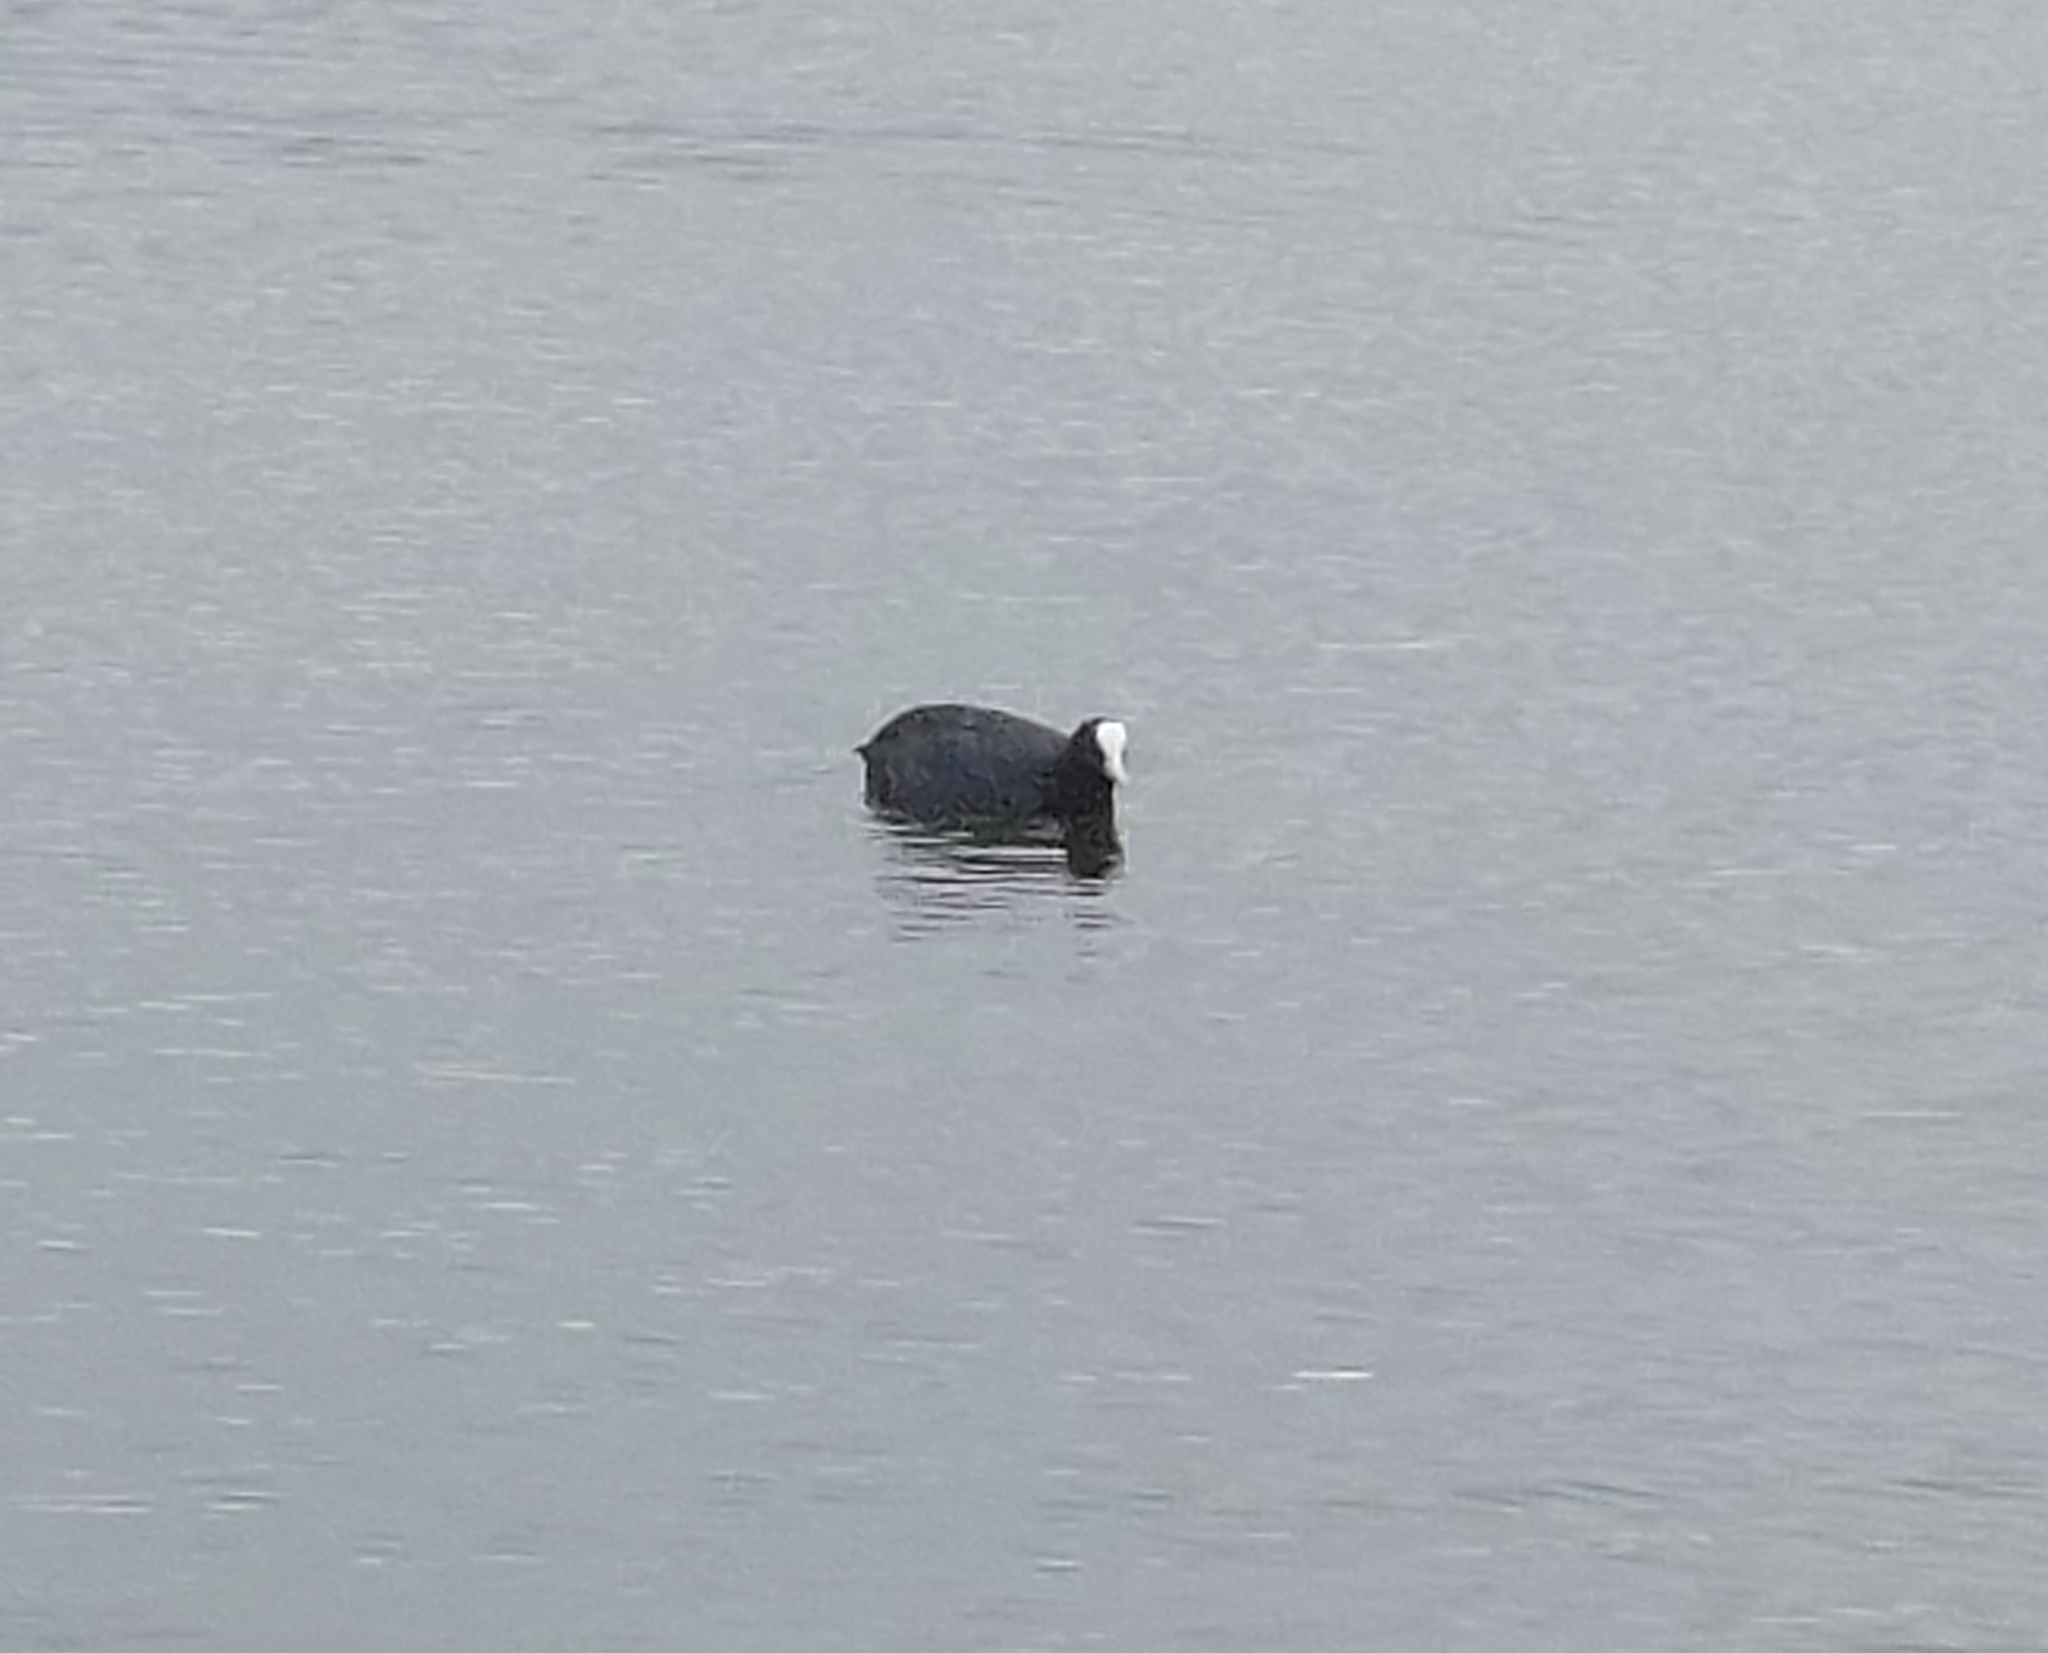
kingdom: Animalia
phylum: Chordata
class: Aves
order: Gruiformes
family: Rallidae
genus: Fulica
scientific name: Fulica atra
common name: Eurasian coot
